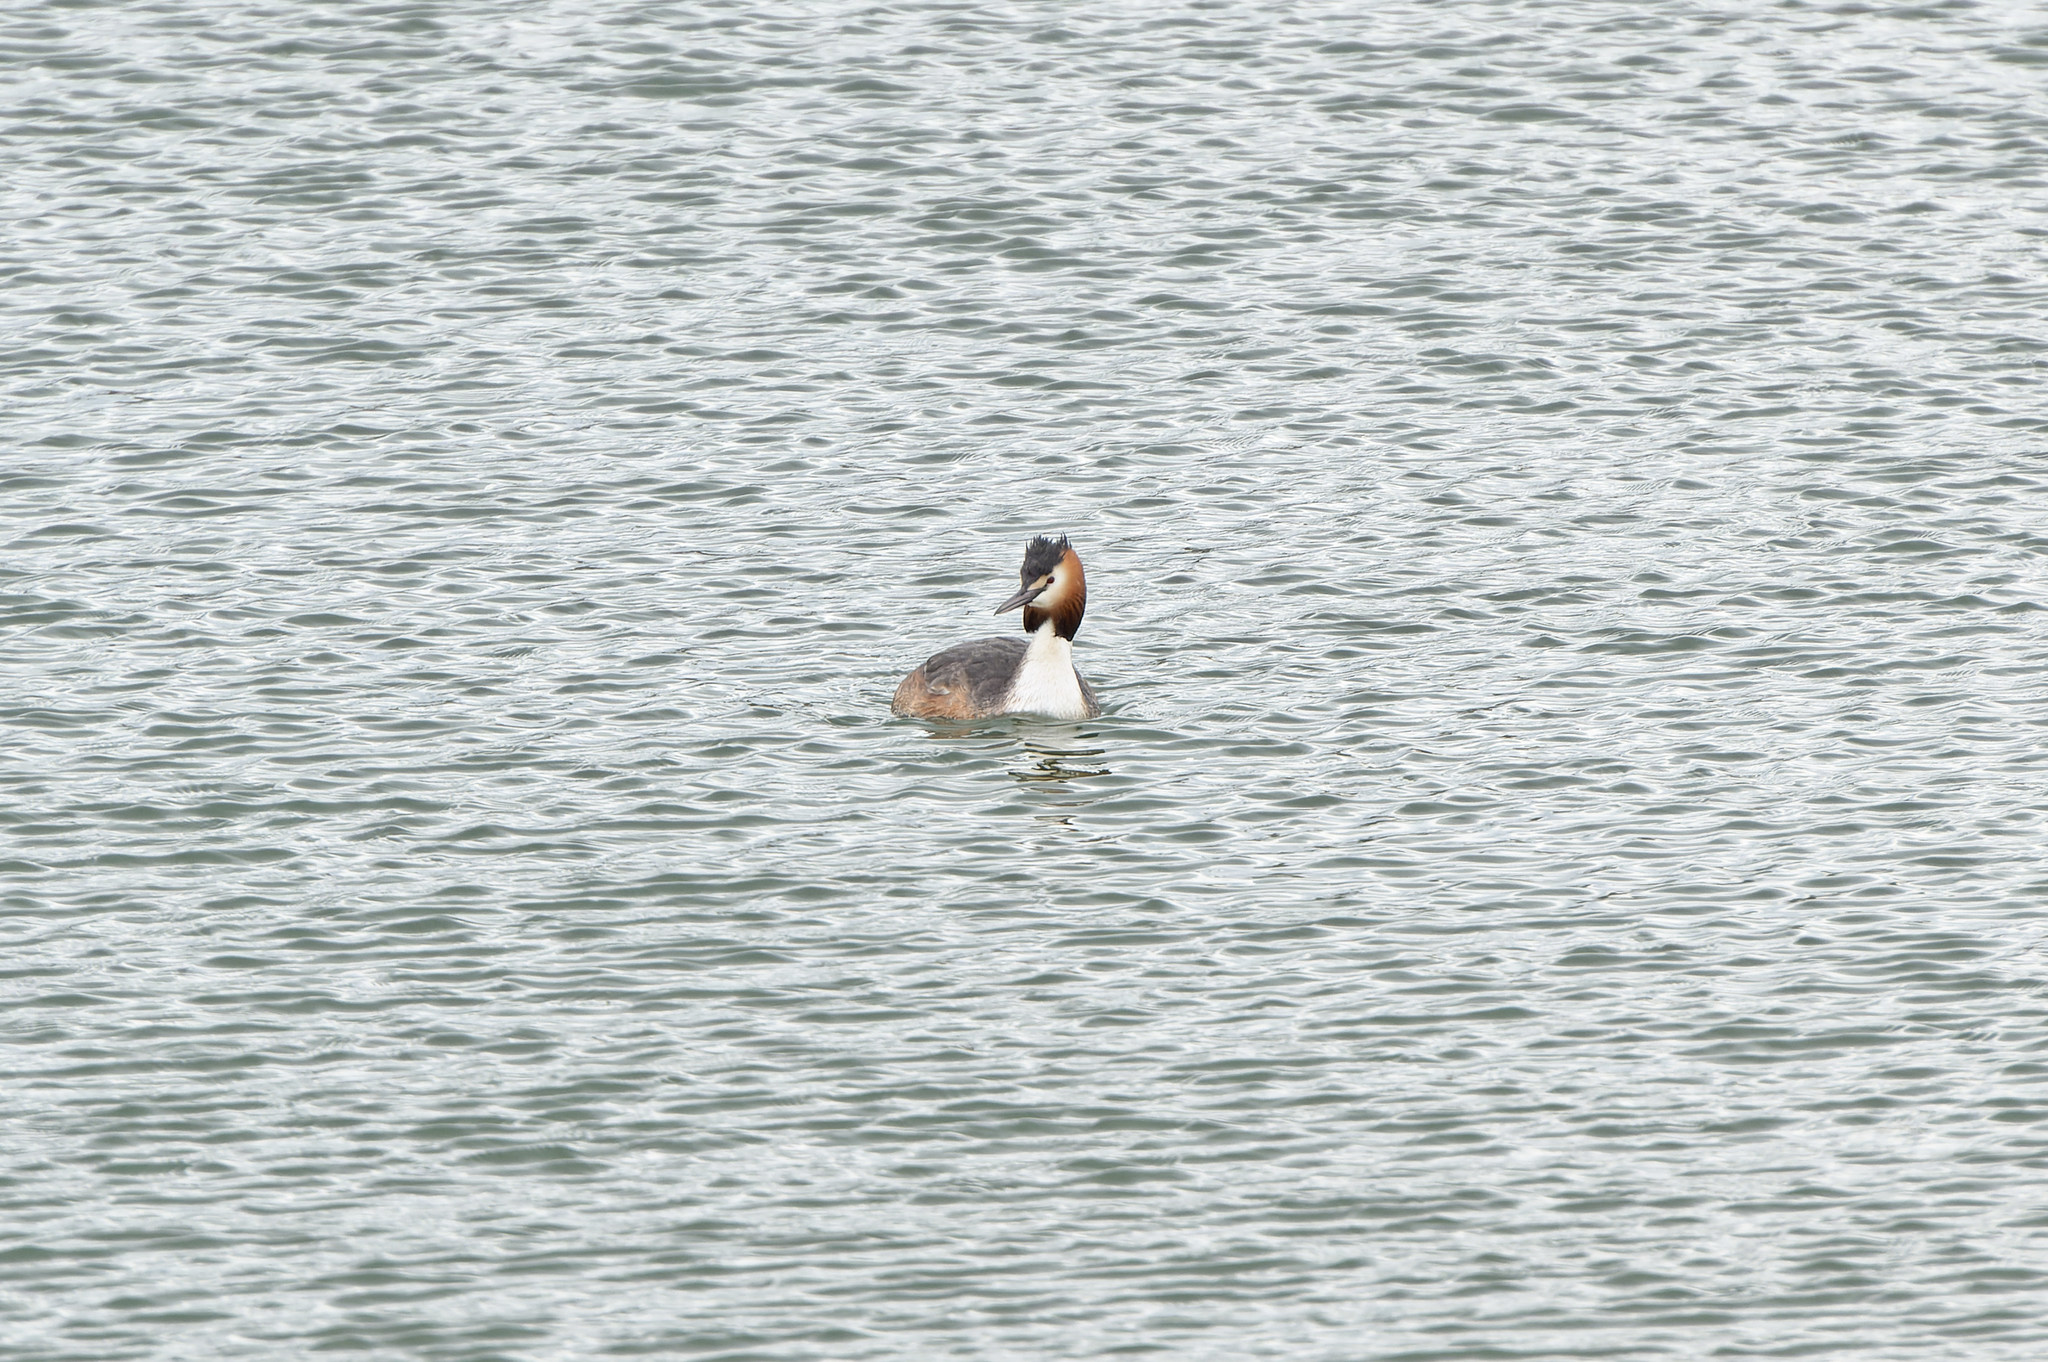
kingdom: Animalia
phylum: Chordata
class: Aves
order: Podicipediformes
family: Podicipedidae
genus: Podiceps
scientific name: Podiceps cristatus
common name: Great crested grebe
